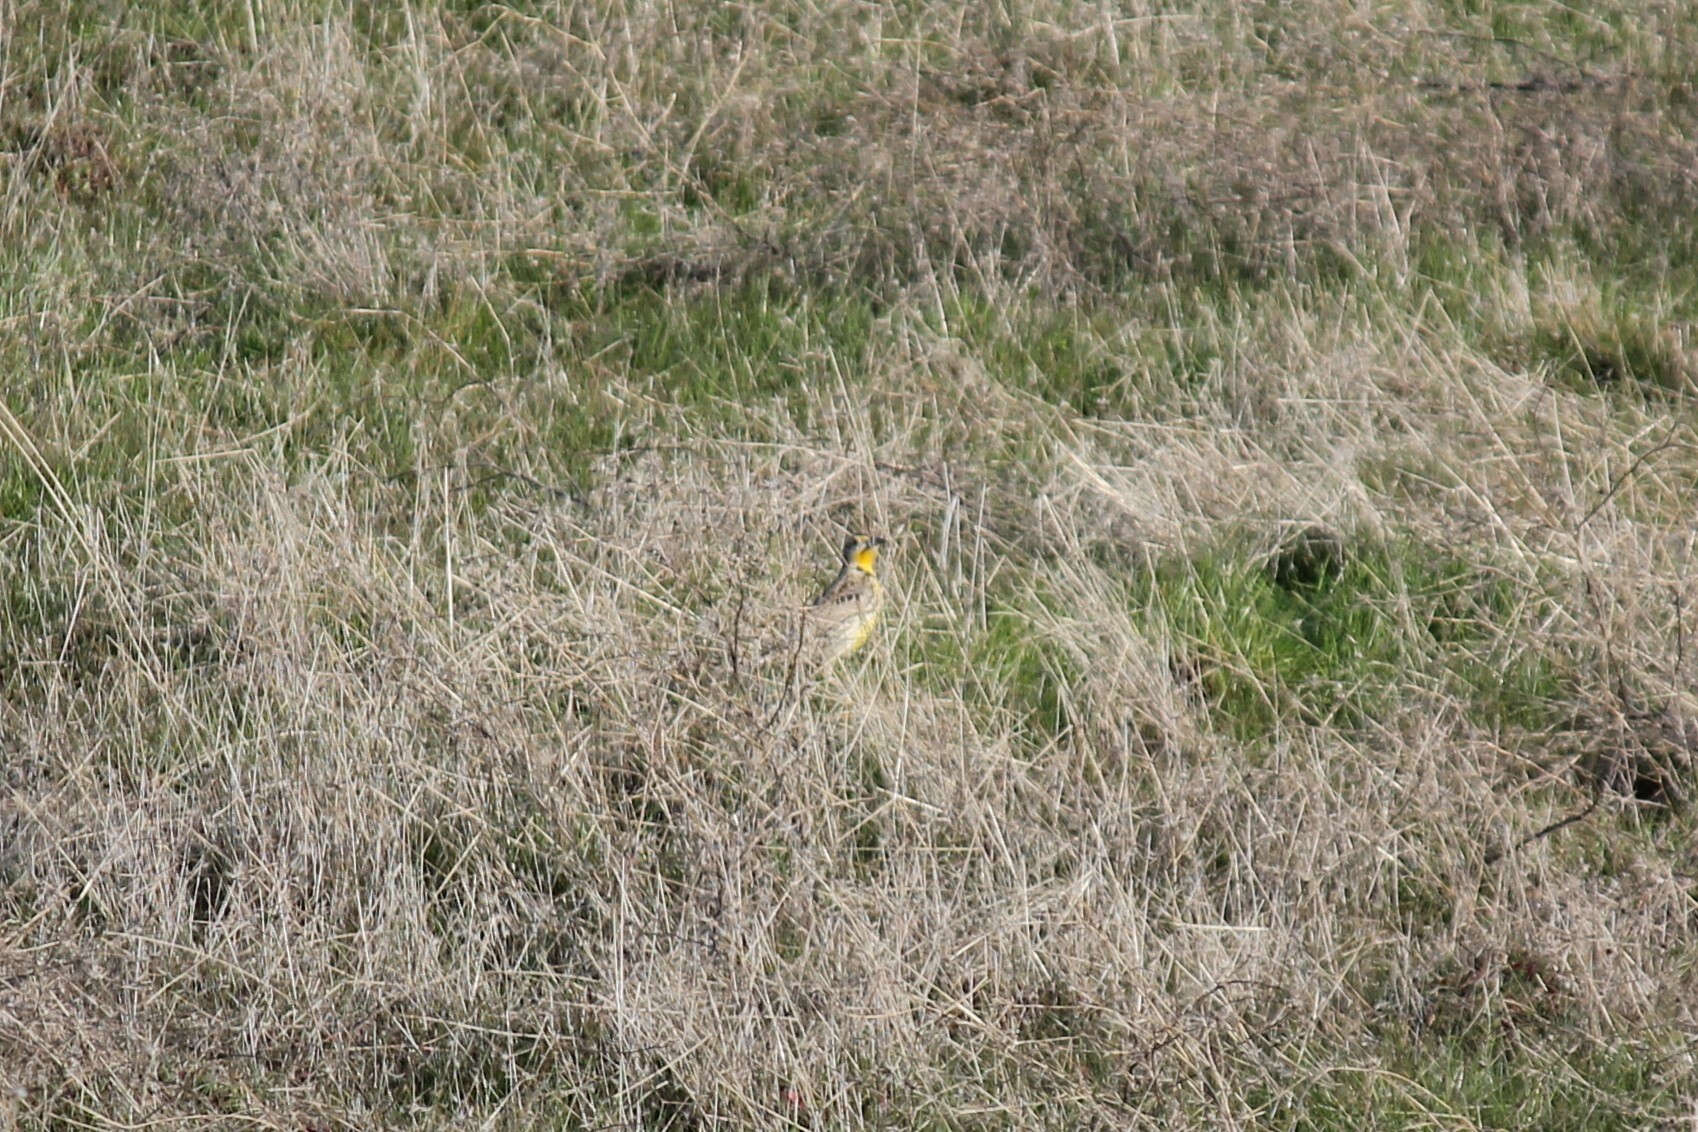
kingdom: Animalia
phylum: Chordata
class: Aves
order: Passeriformes
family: Icteridae
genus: Sturnella
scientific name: Sturnella neglecta
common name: Western meadowlark
